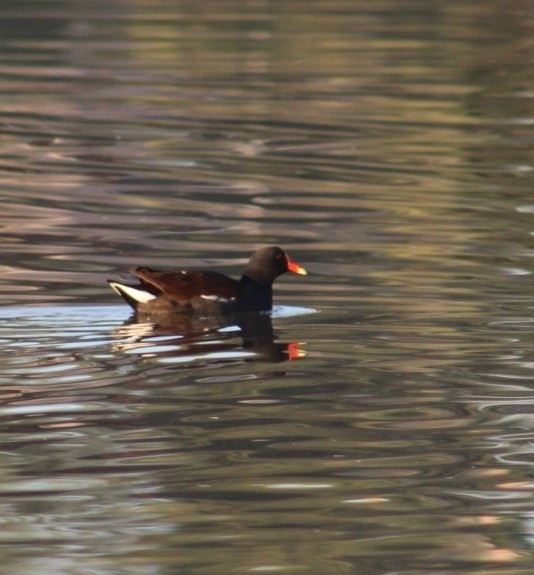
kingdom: Animalia
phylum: Chordata
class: Aves
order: Gruiformes
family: Rallidae
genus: Gallinula
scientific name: Gallinula chloropus
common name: Common moorhen
